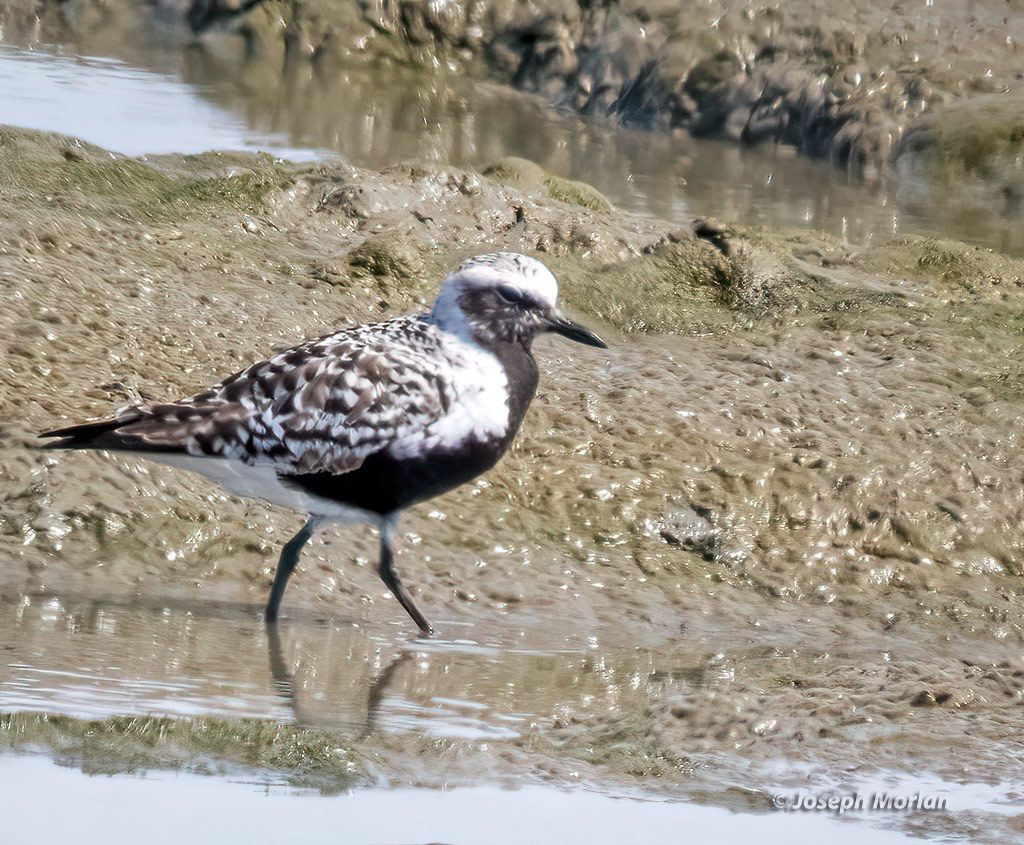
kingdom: Animalia
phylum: Chordata
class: Aves
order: Charadriiformes
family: Charadriidae
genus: Pluvialis
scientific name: Pluvialis squatarola
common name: Grey plover
